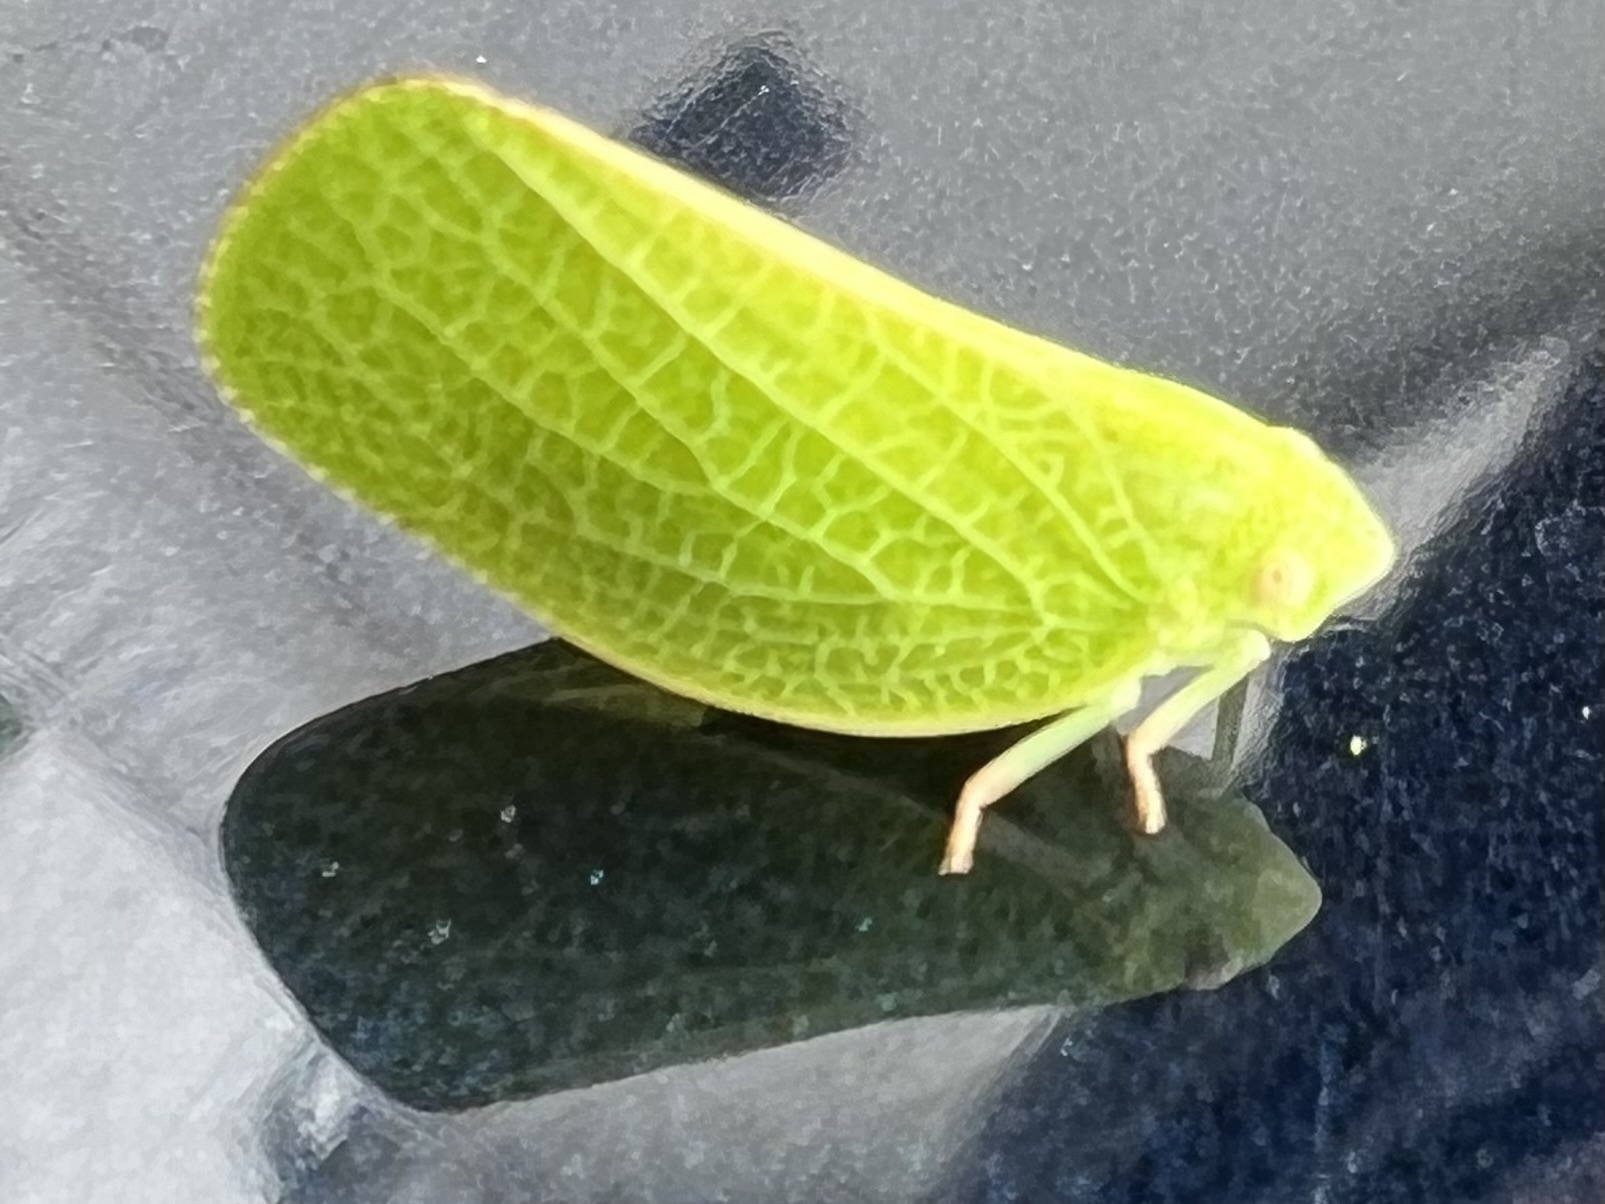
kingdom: Animalia
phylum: Arthropoda
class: Insecta
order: Hemiptera
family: Acanaloniidae
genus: Acanalonia
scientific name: Acanalonia conica
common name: Green cone-headed planthopper
